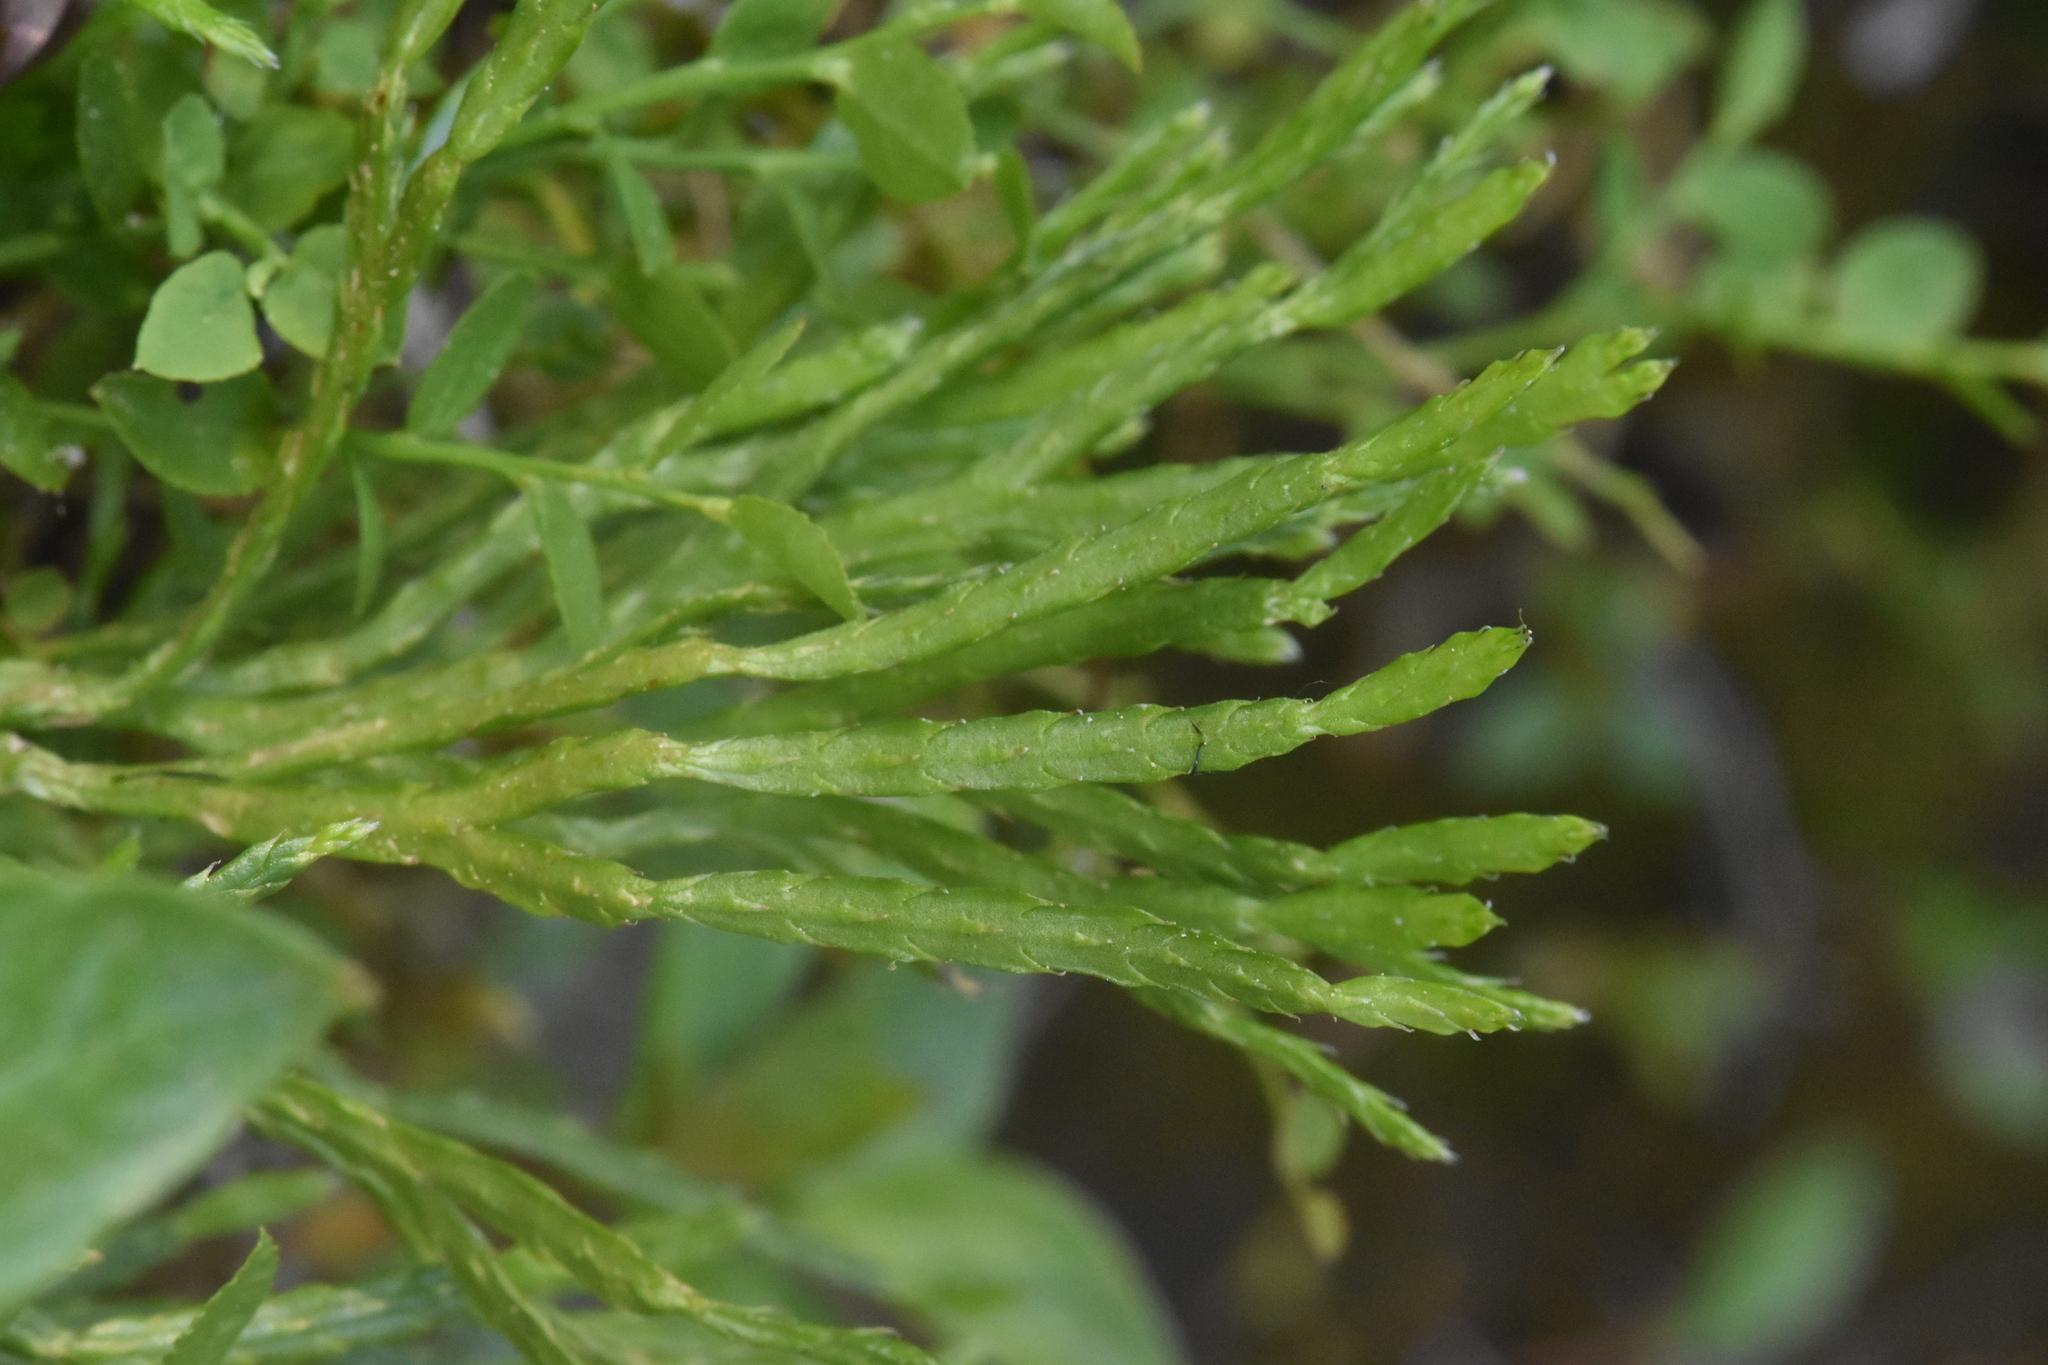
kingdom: Plantae
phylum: Tracheophyta
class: Lycopodiopsida
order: Lycopodiales
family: Lycopodiaceae
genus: Diphasiastrum
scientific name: Diphasiastrum complanatum
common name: Northern running-pine
